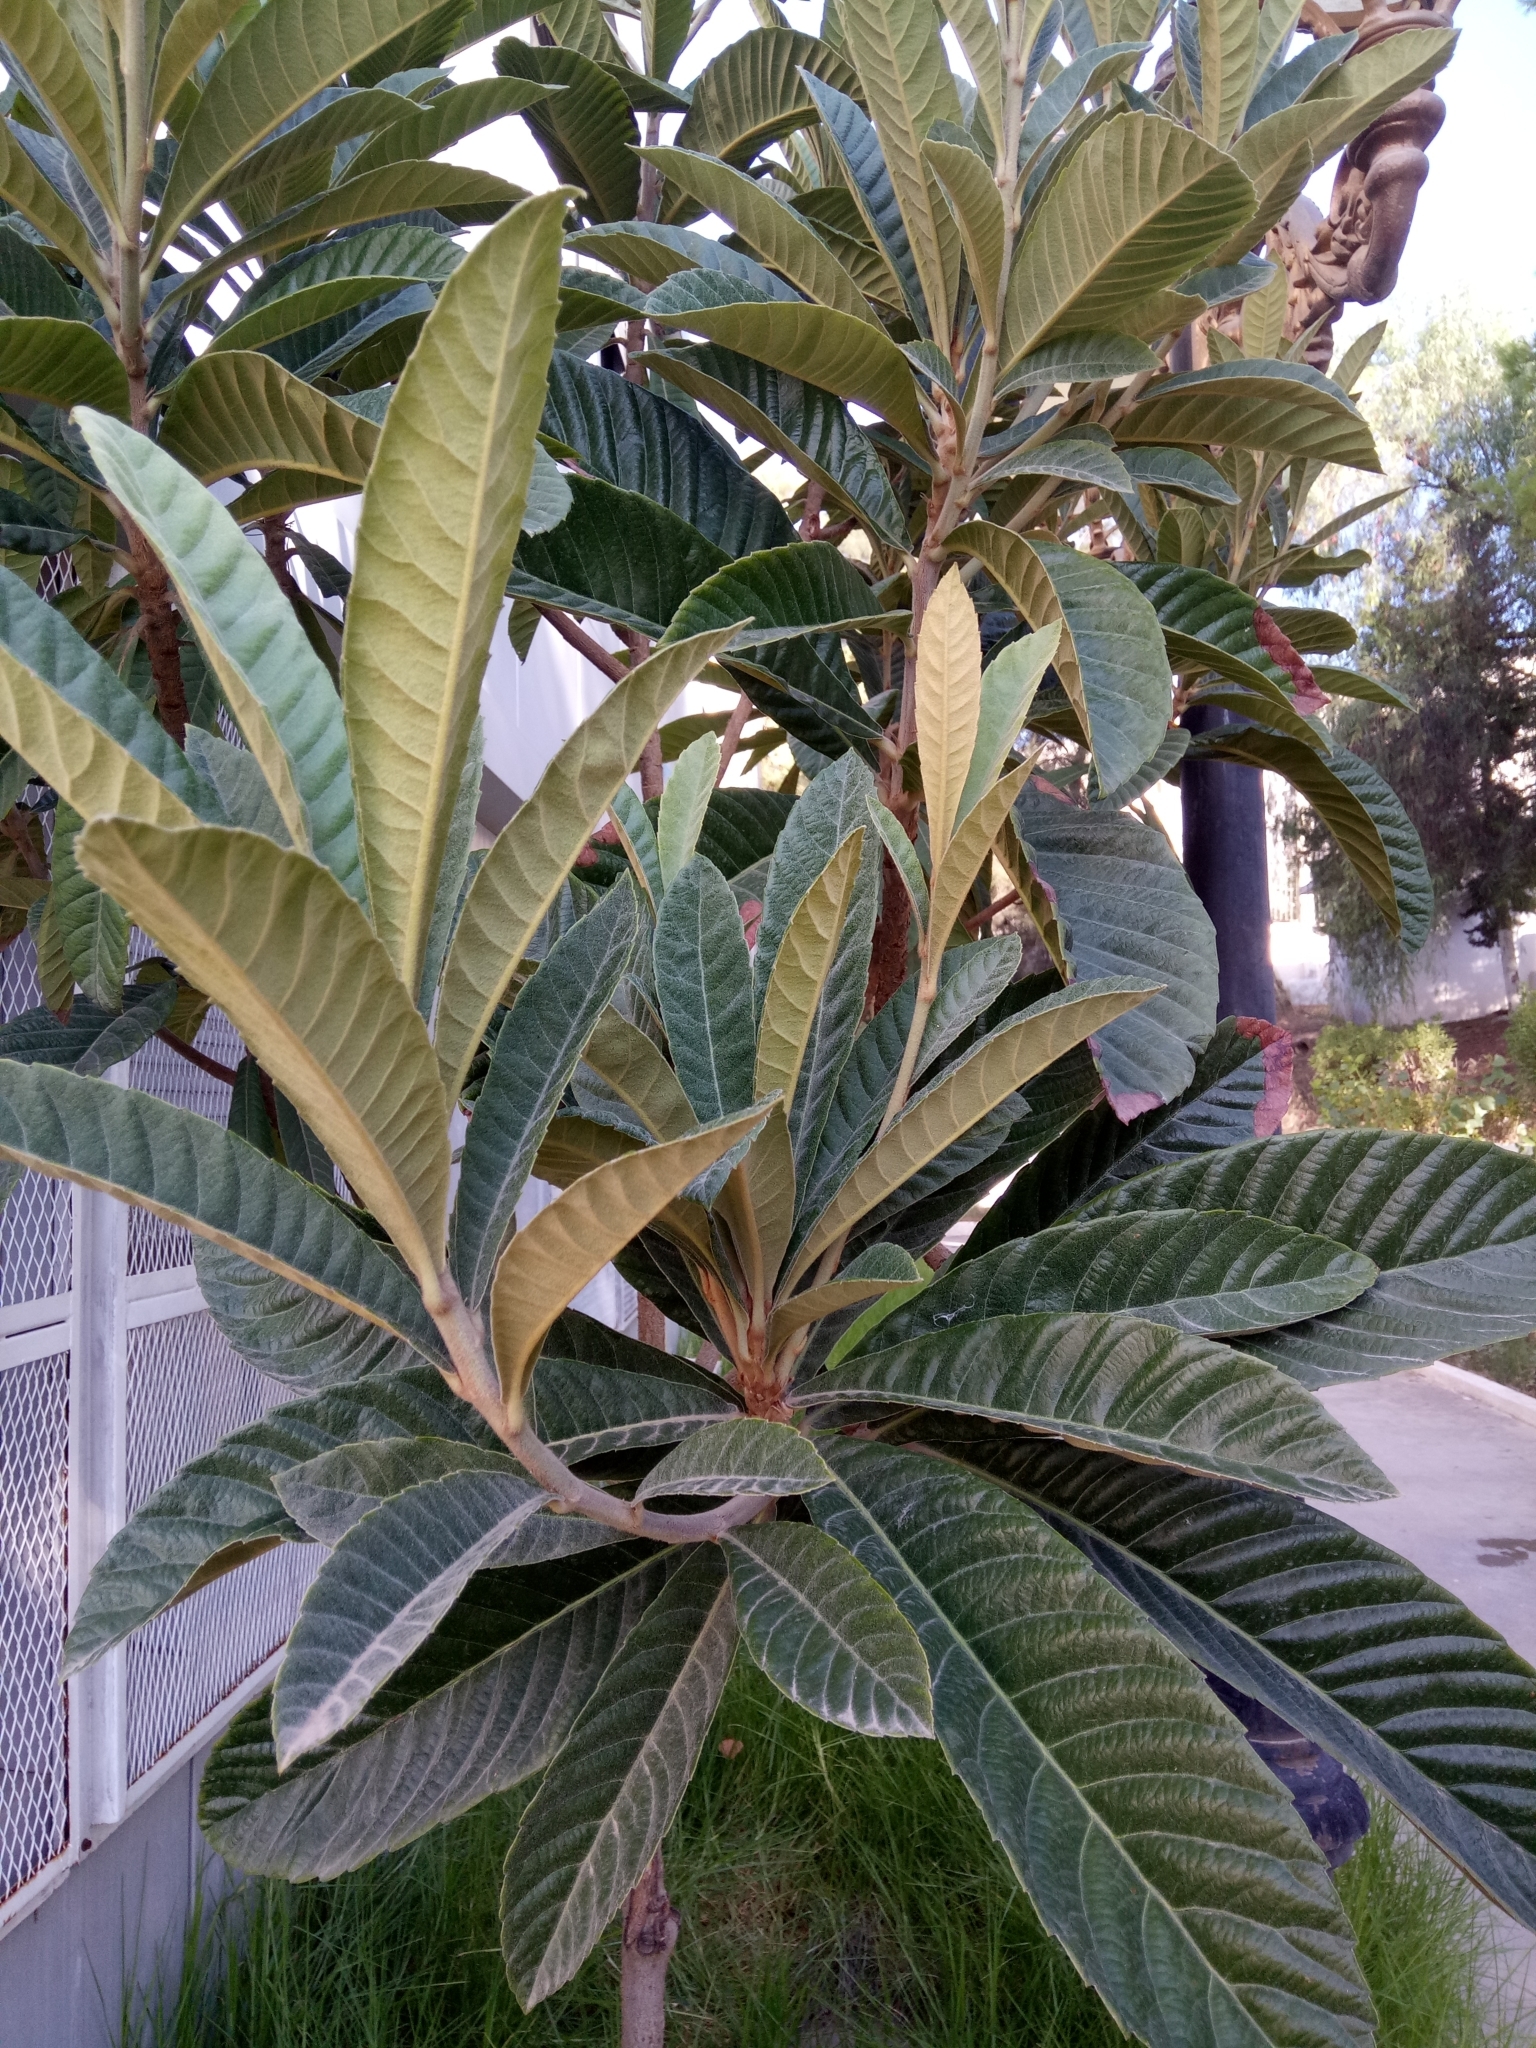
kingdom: Plantae
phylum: Tracheophyta
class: Magnoliopsida
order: Rosales
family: Rosaceae
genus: Rhaphiolepis
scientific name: Rhaphiolepis bibas
